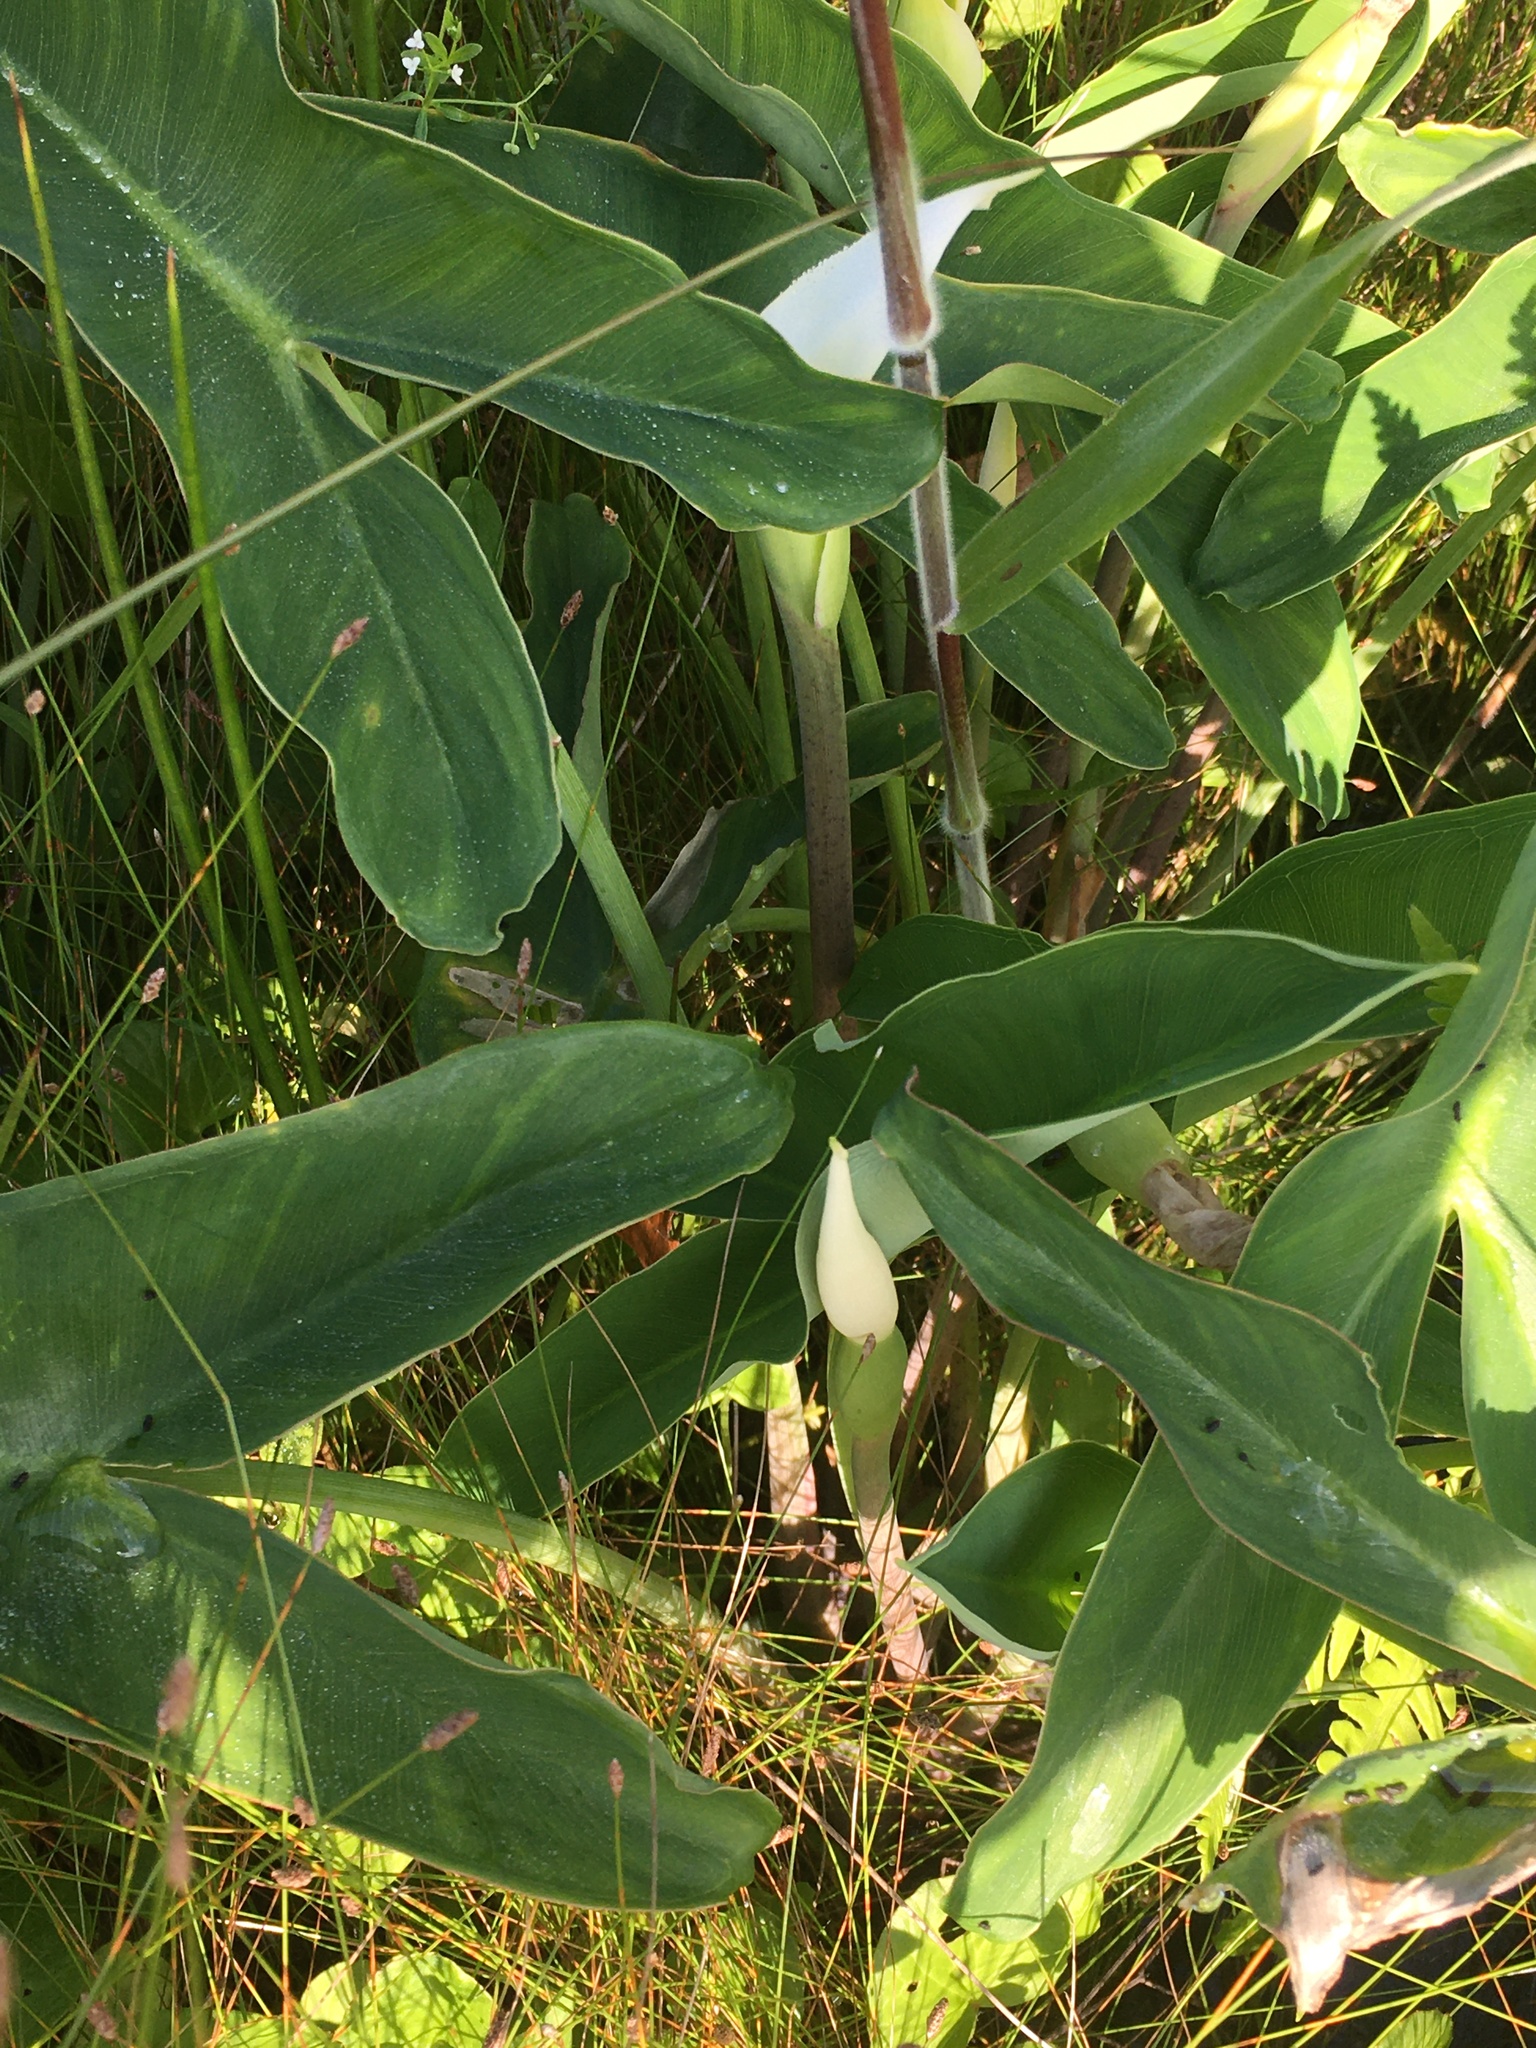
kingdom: Plantae
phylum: Tracheophyta
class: Liliopsida
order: Alismatales
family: Araceae
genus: Peltandra
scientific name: Peltandra sagittifolia
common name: White arrow arum
